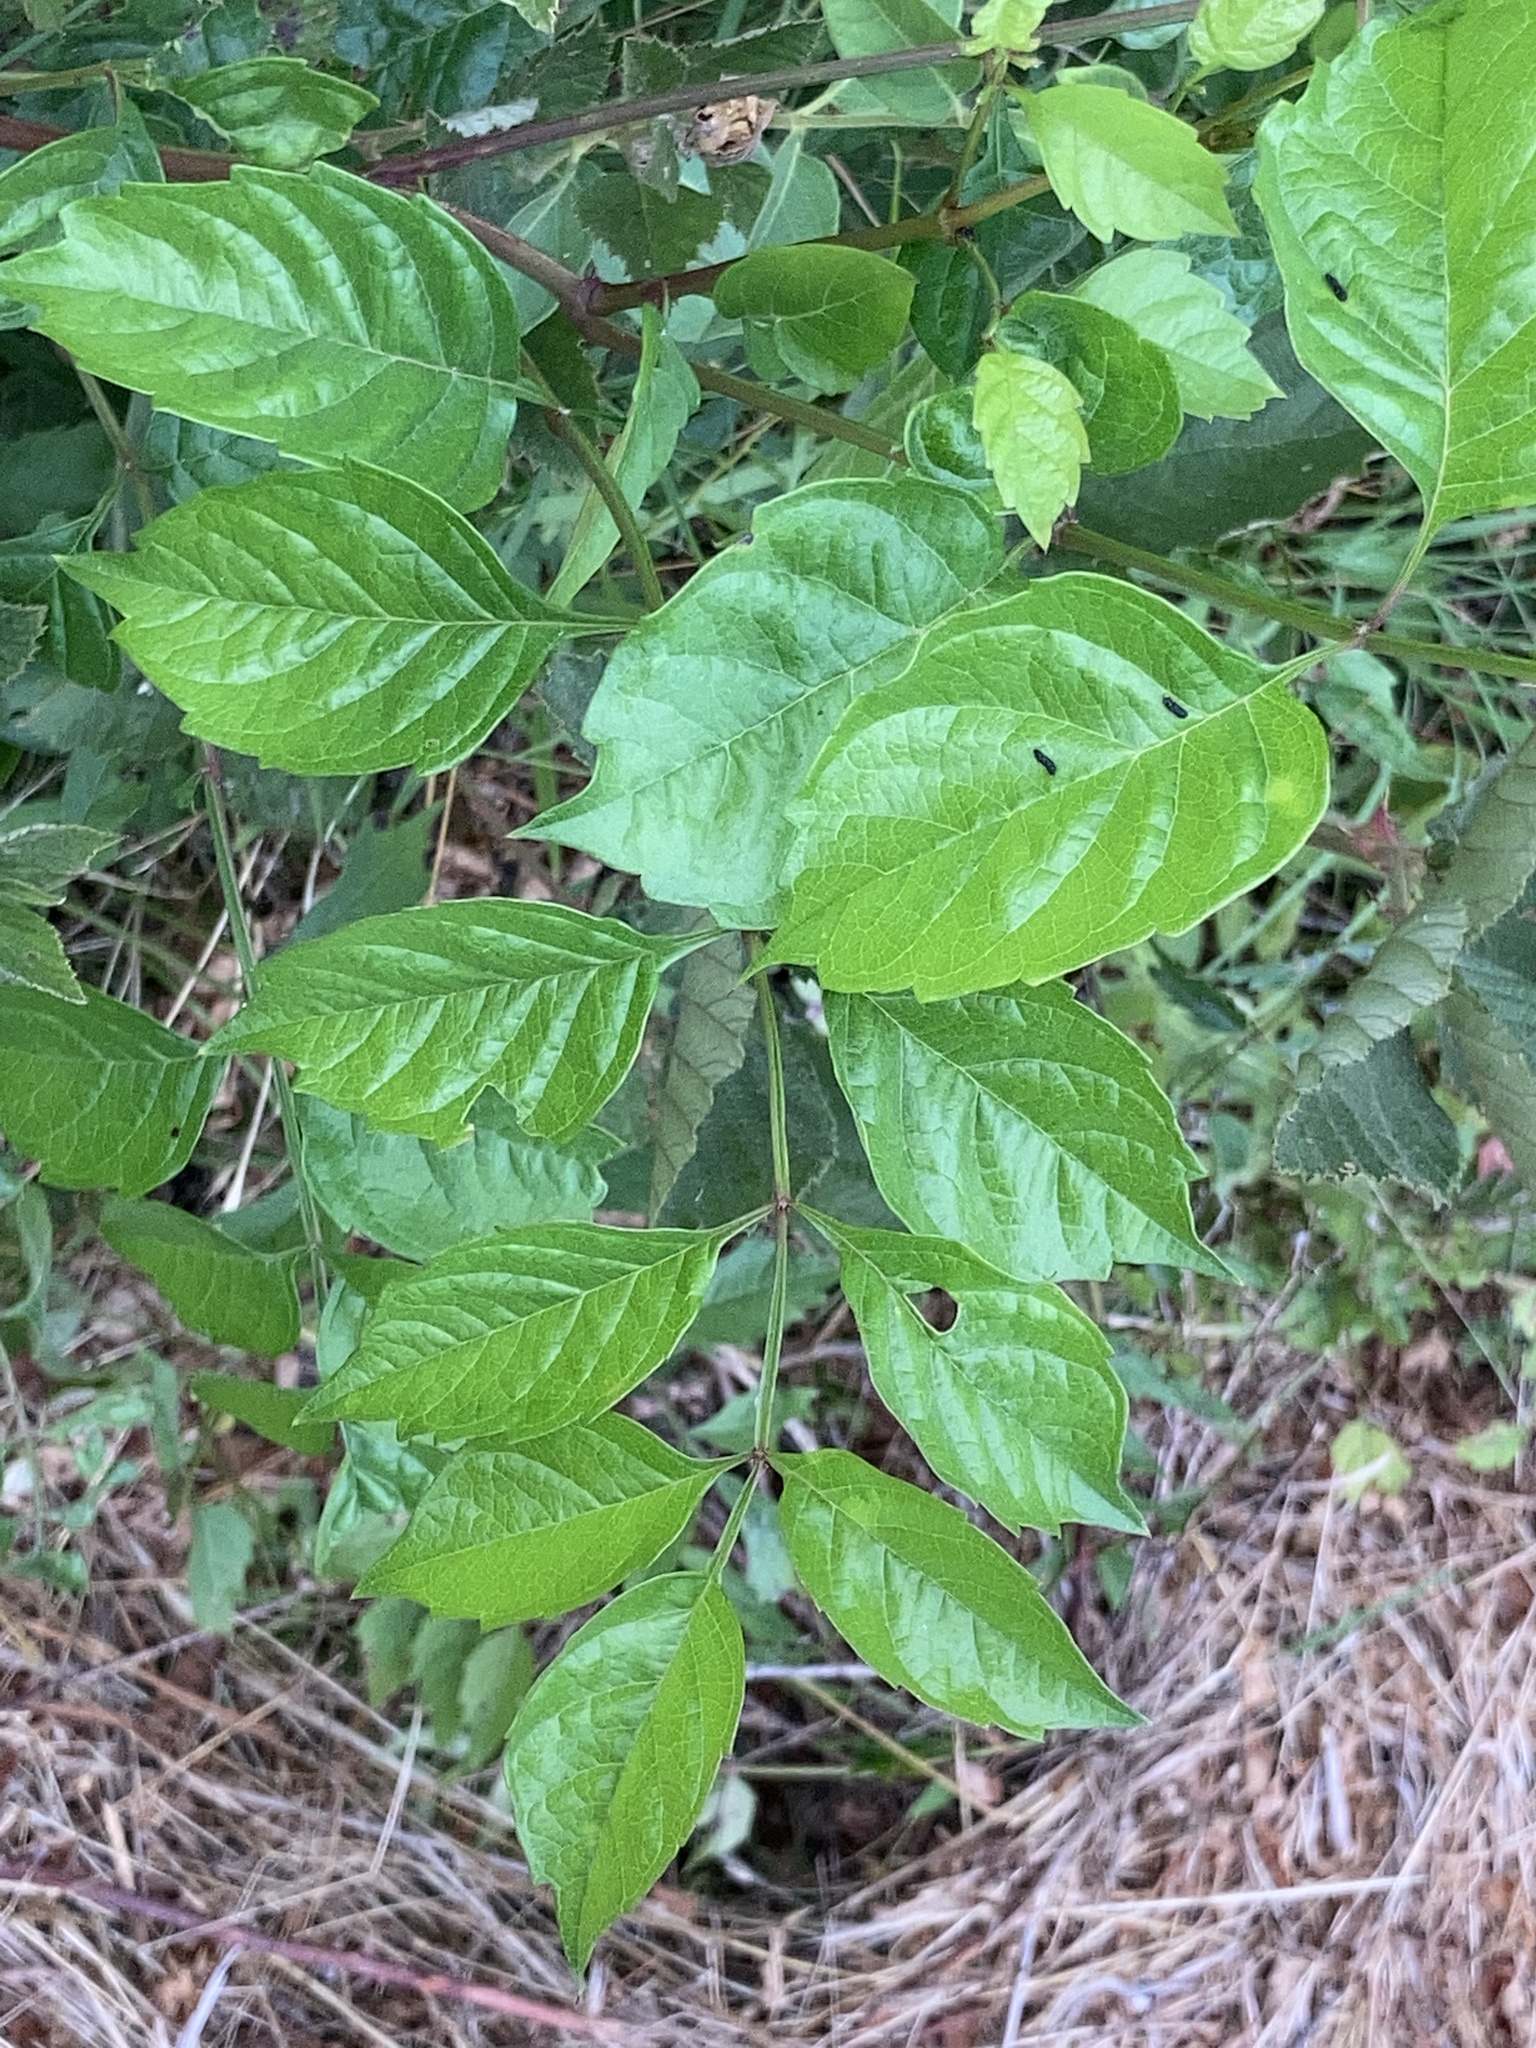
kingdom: Plantae
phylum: Tracheophyta
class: Magnoliopsida
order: Lamiales
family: Bignoniaceae
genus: Campsis
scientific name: Campsis radicans
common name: Trumpet-creeper
